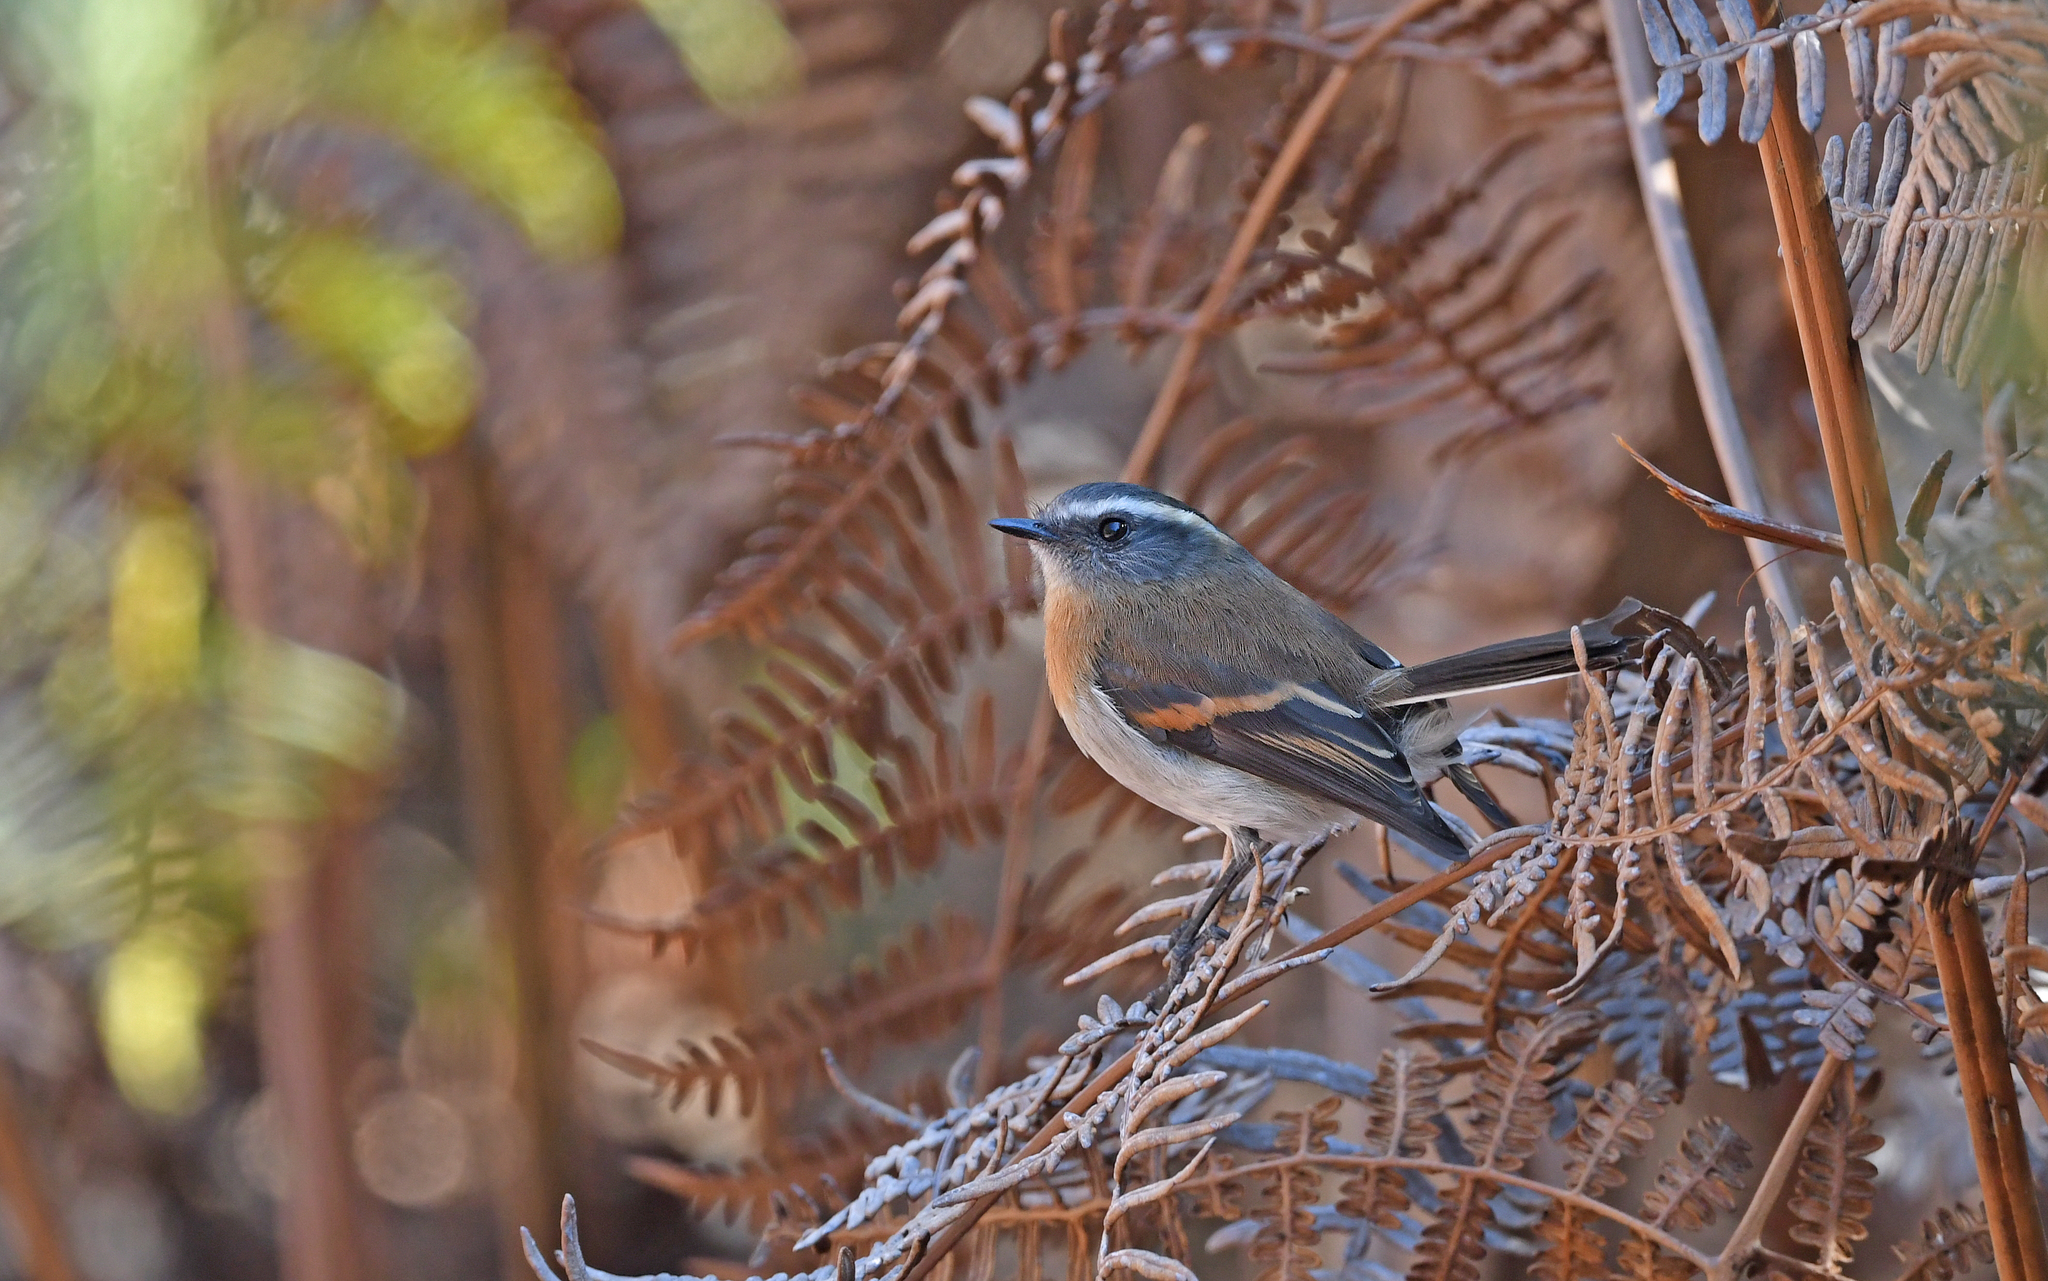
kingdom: Animalia
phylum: Chordata
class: Aves
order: Passeriformes
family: Tyrannidae
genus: Ochthoeca
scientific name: Ochthoeca rufipectoralis
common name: Rufous-breasted chat-tyrant
